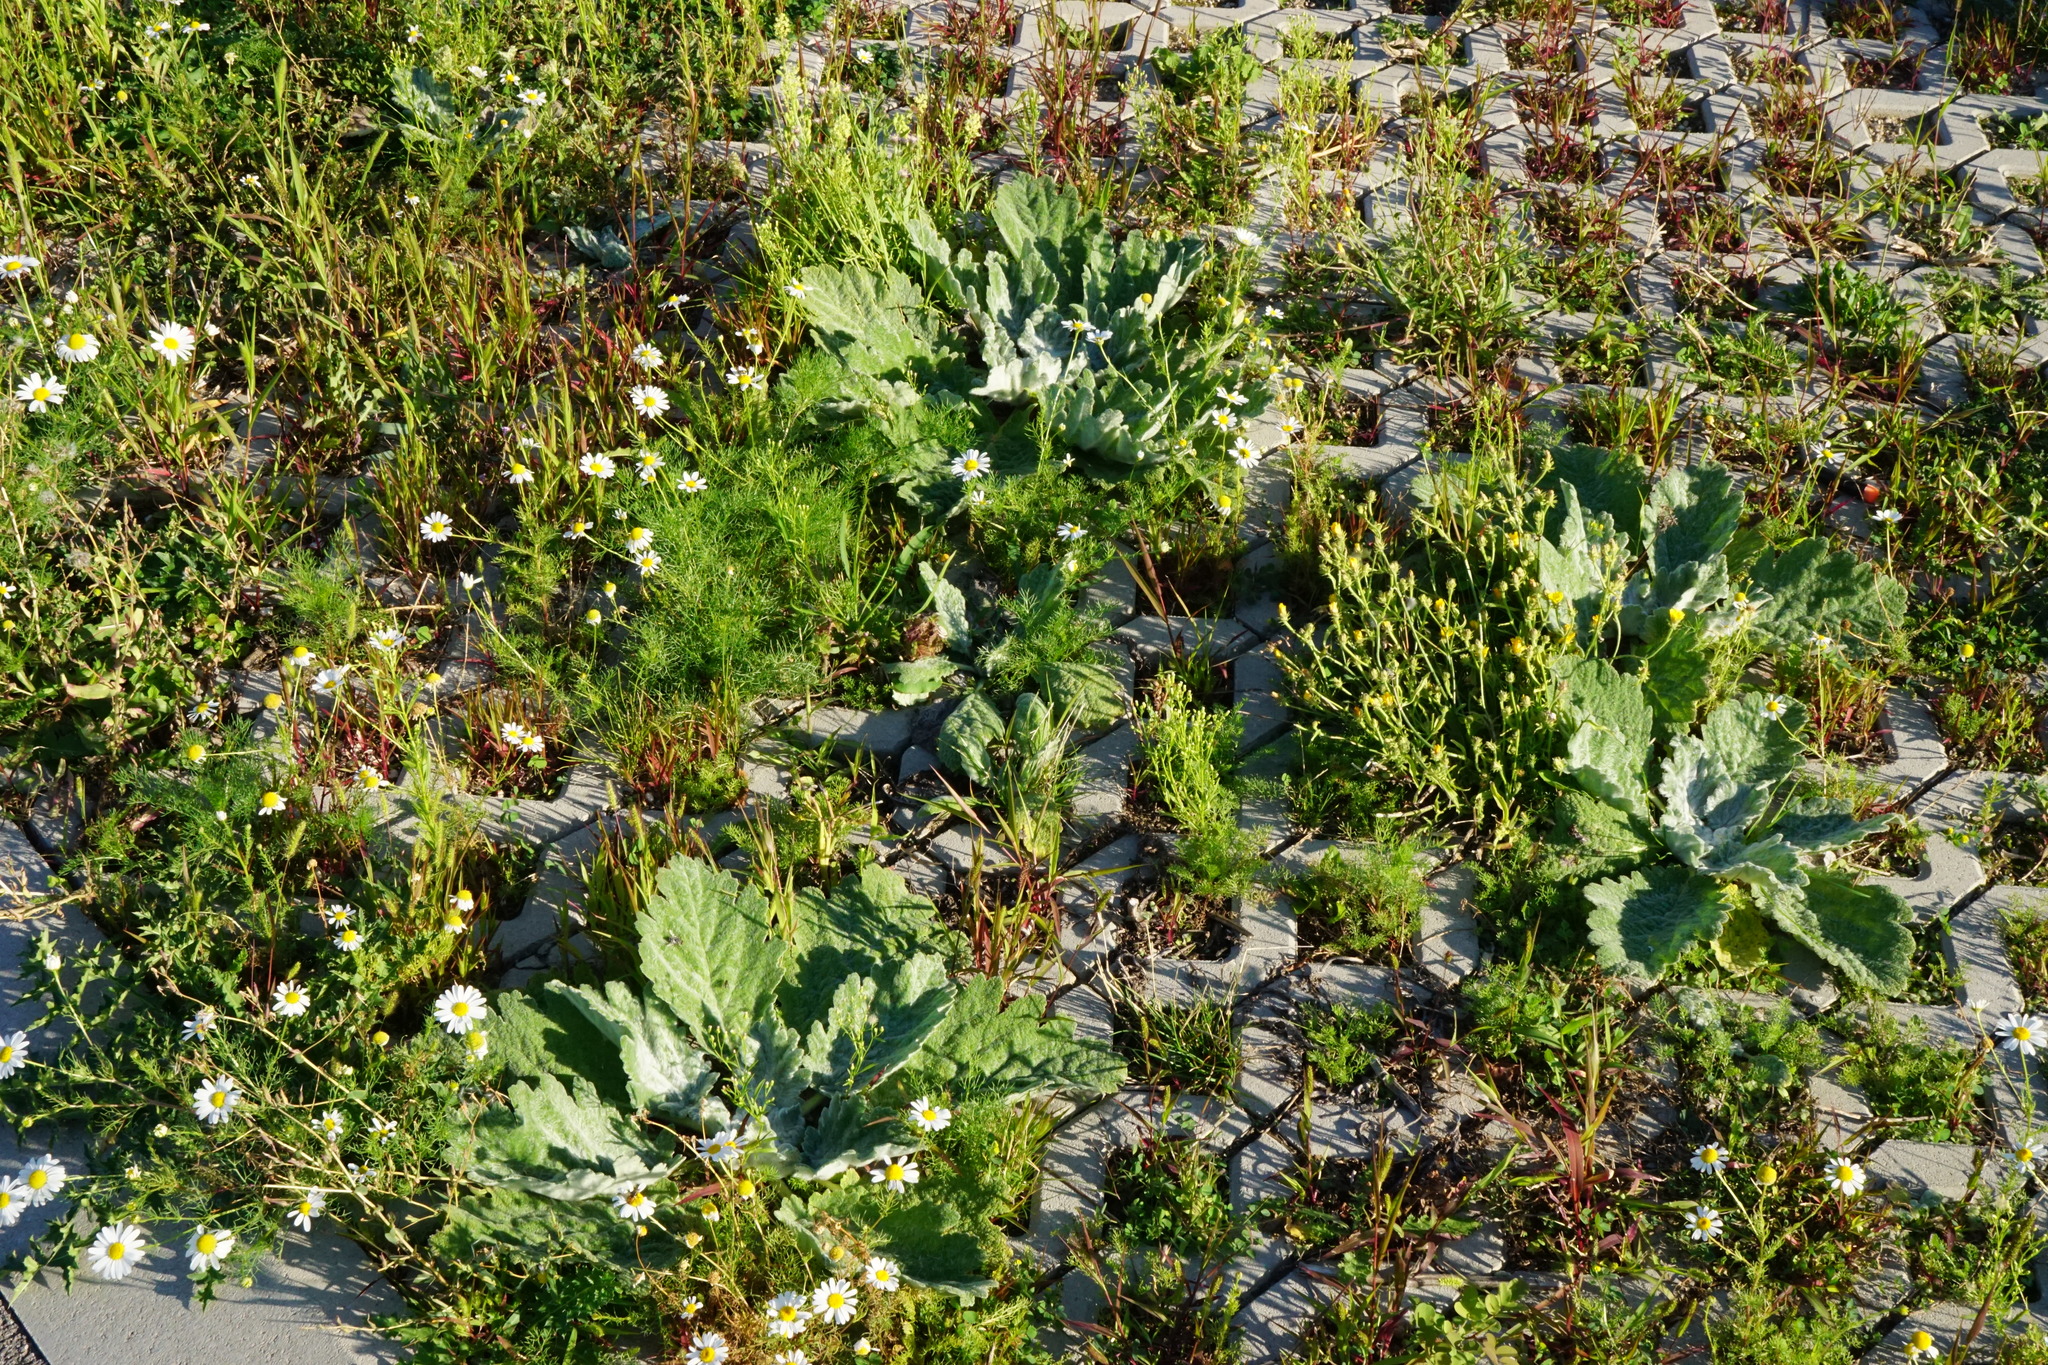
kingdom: Plantae
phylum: Tracheophyta
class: Magnoliopsida
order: Lamiales
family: Lamiaceae
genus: Salvia
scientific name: Salvia aethiopis
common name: Mediterranean sage
